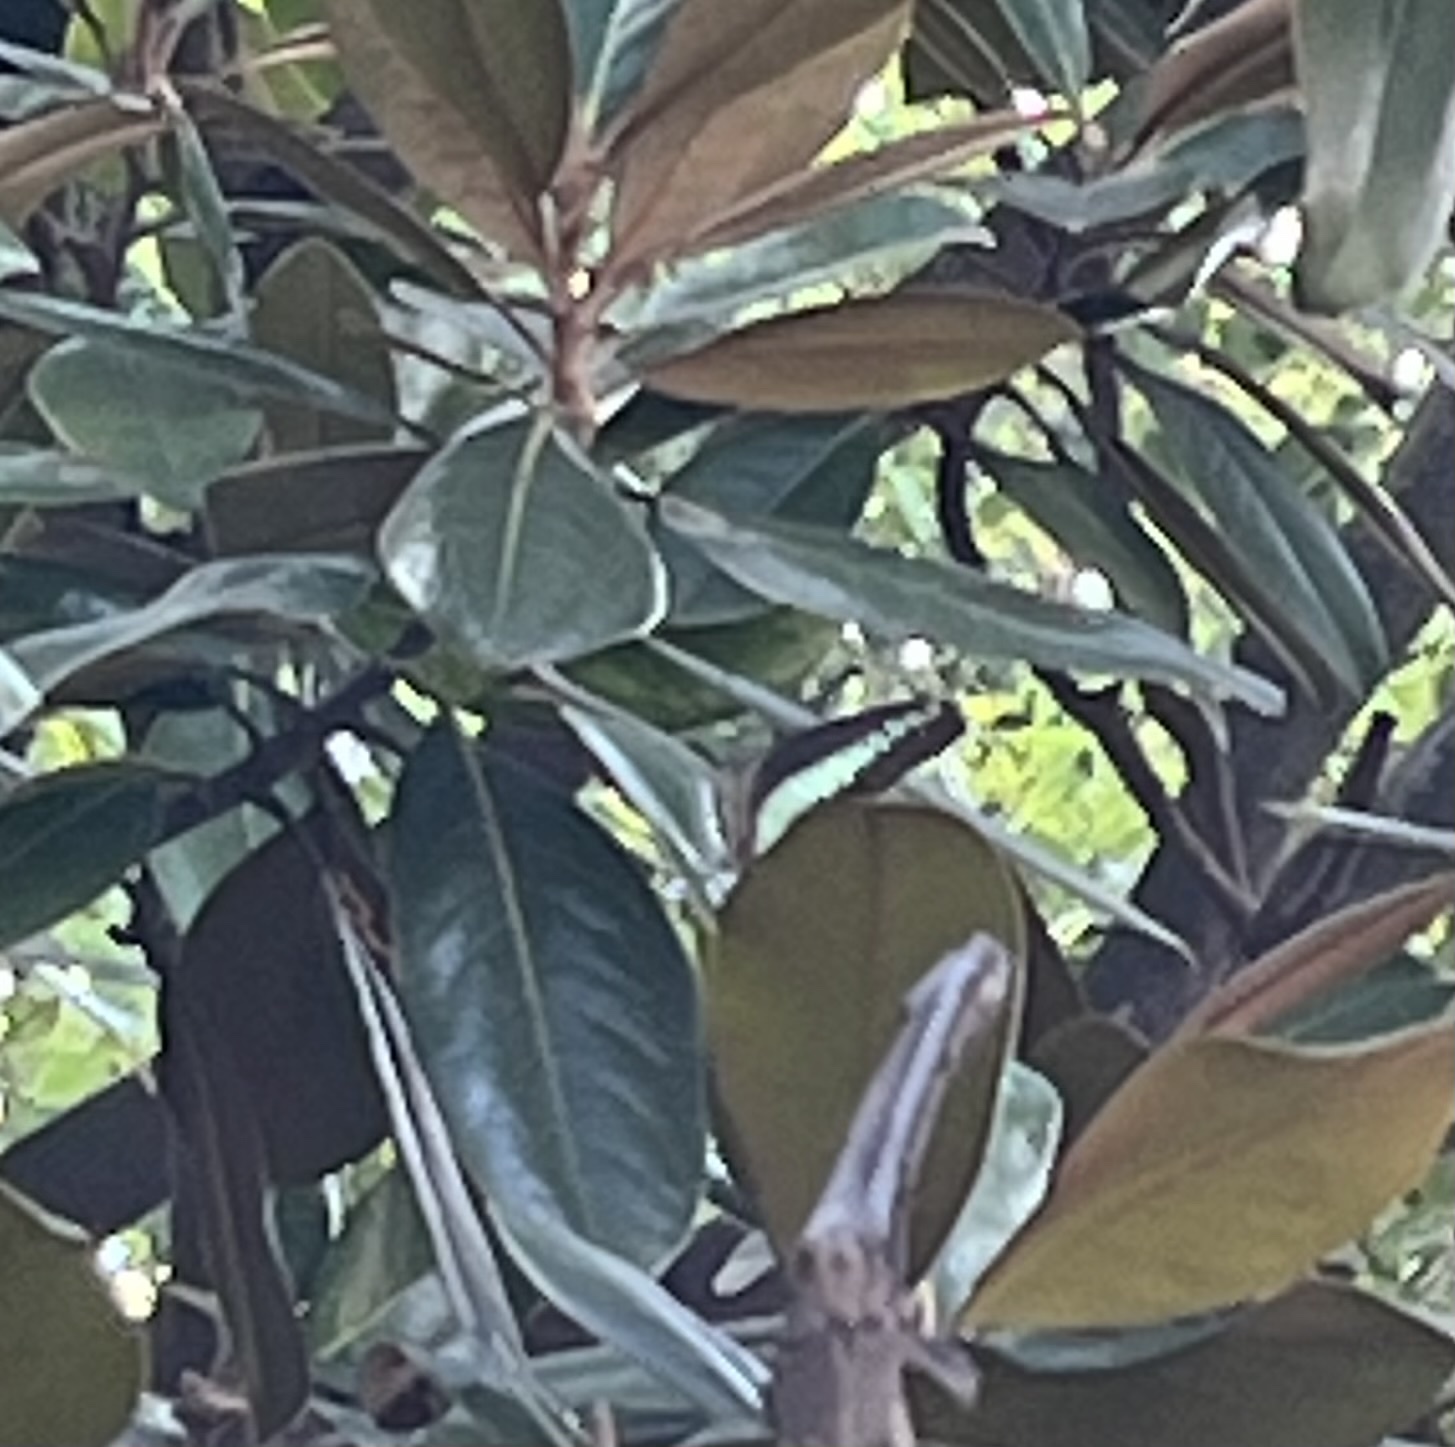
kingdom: Fungi
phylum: Ascomycota
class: Sordariomycetes
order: Microascales
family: Microascaceae
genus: Graphium
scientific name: Graphium sarpedon
